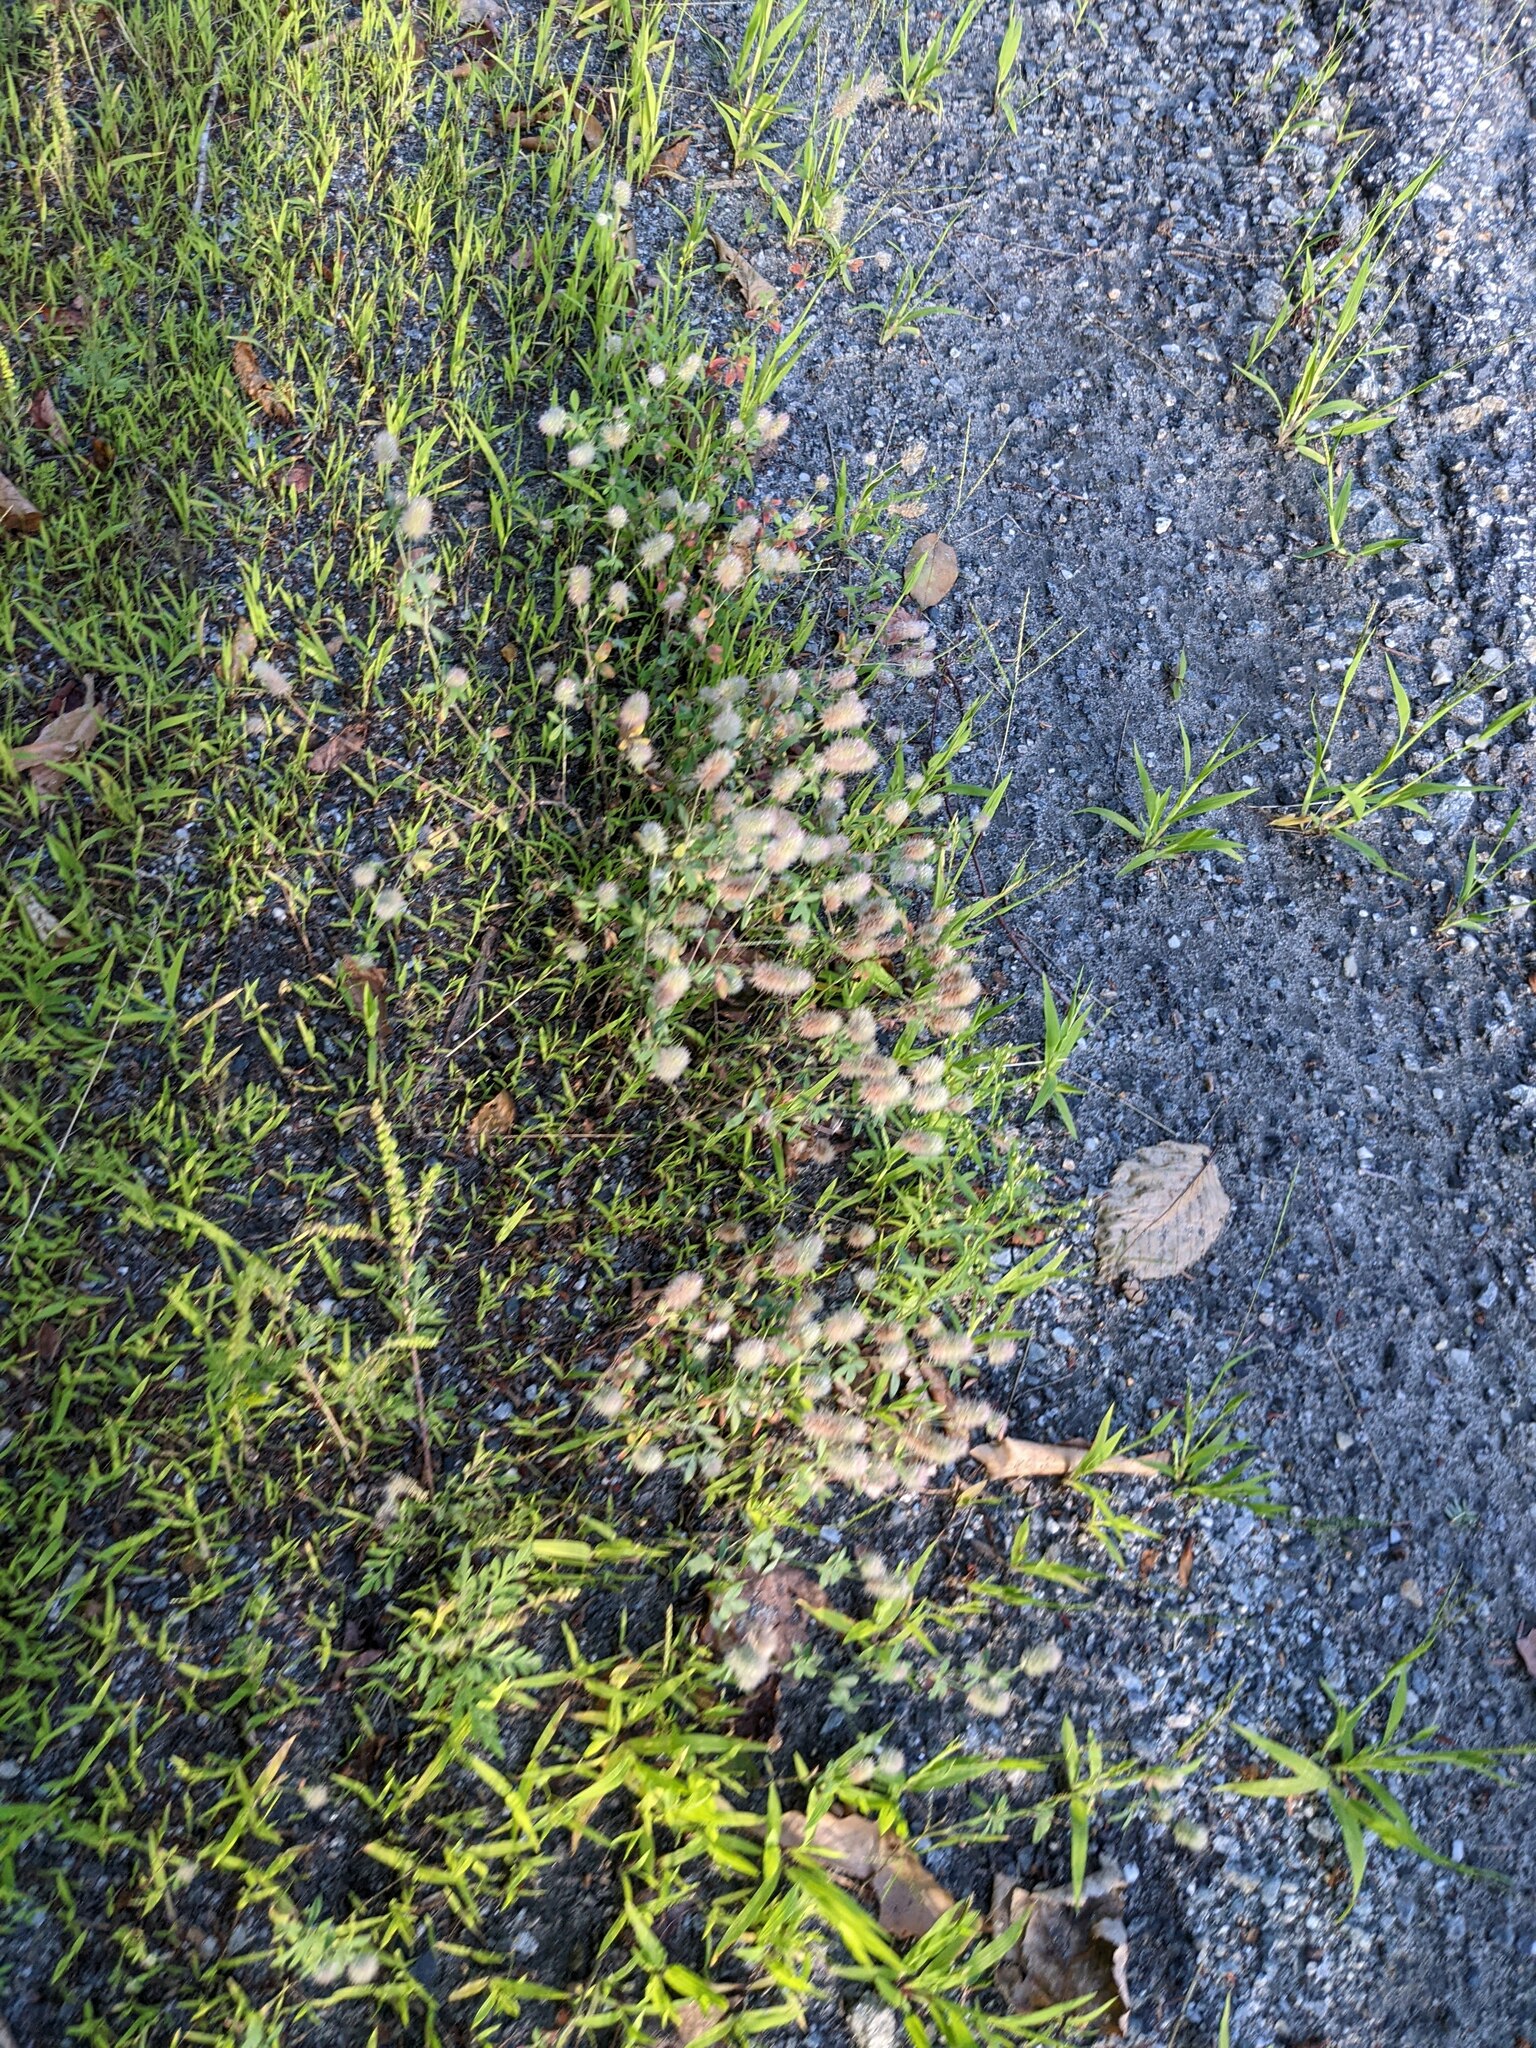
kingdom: Plantae
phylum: Tracheophyta
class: Magnoliopsida
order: Fabales
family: Fabaceae
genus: Trifolium
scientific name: Trifolium arvense
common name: Hare's-foot clover
